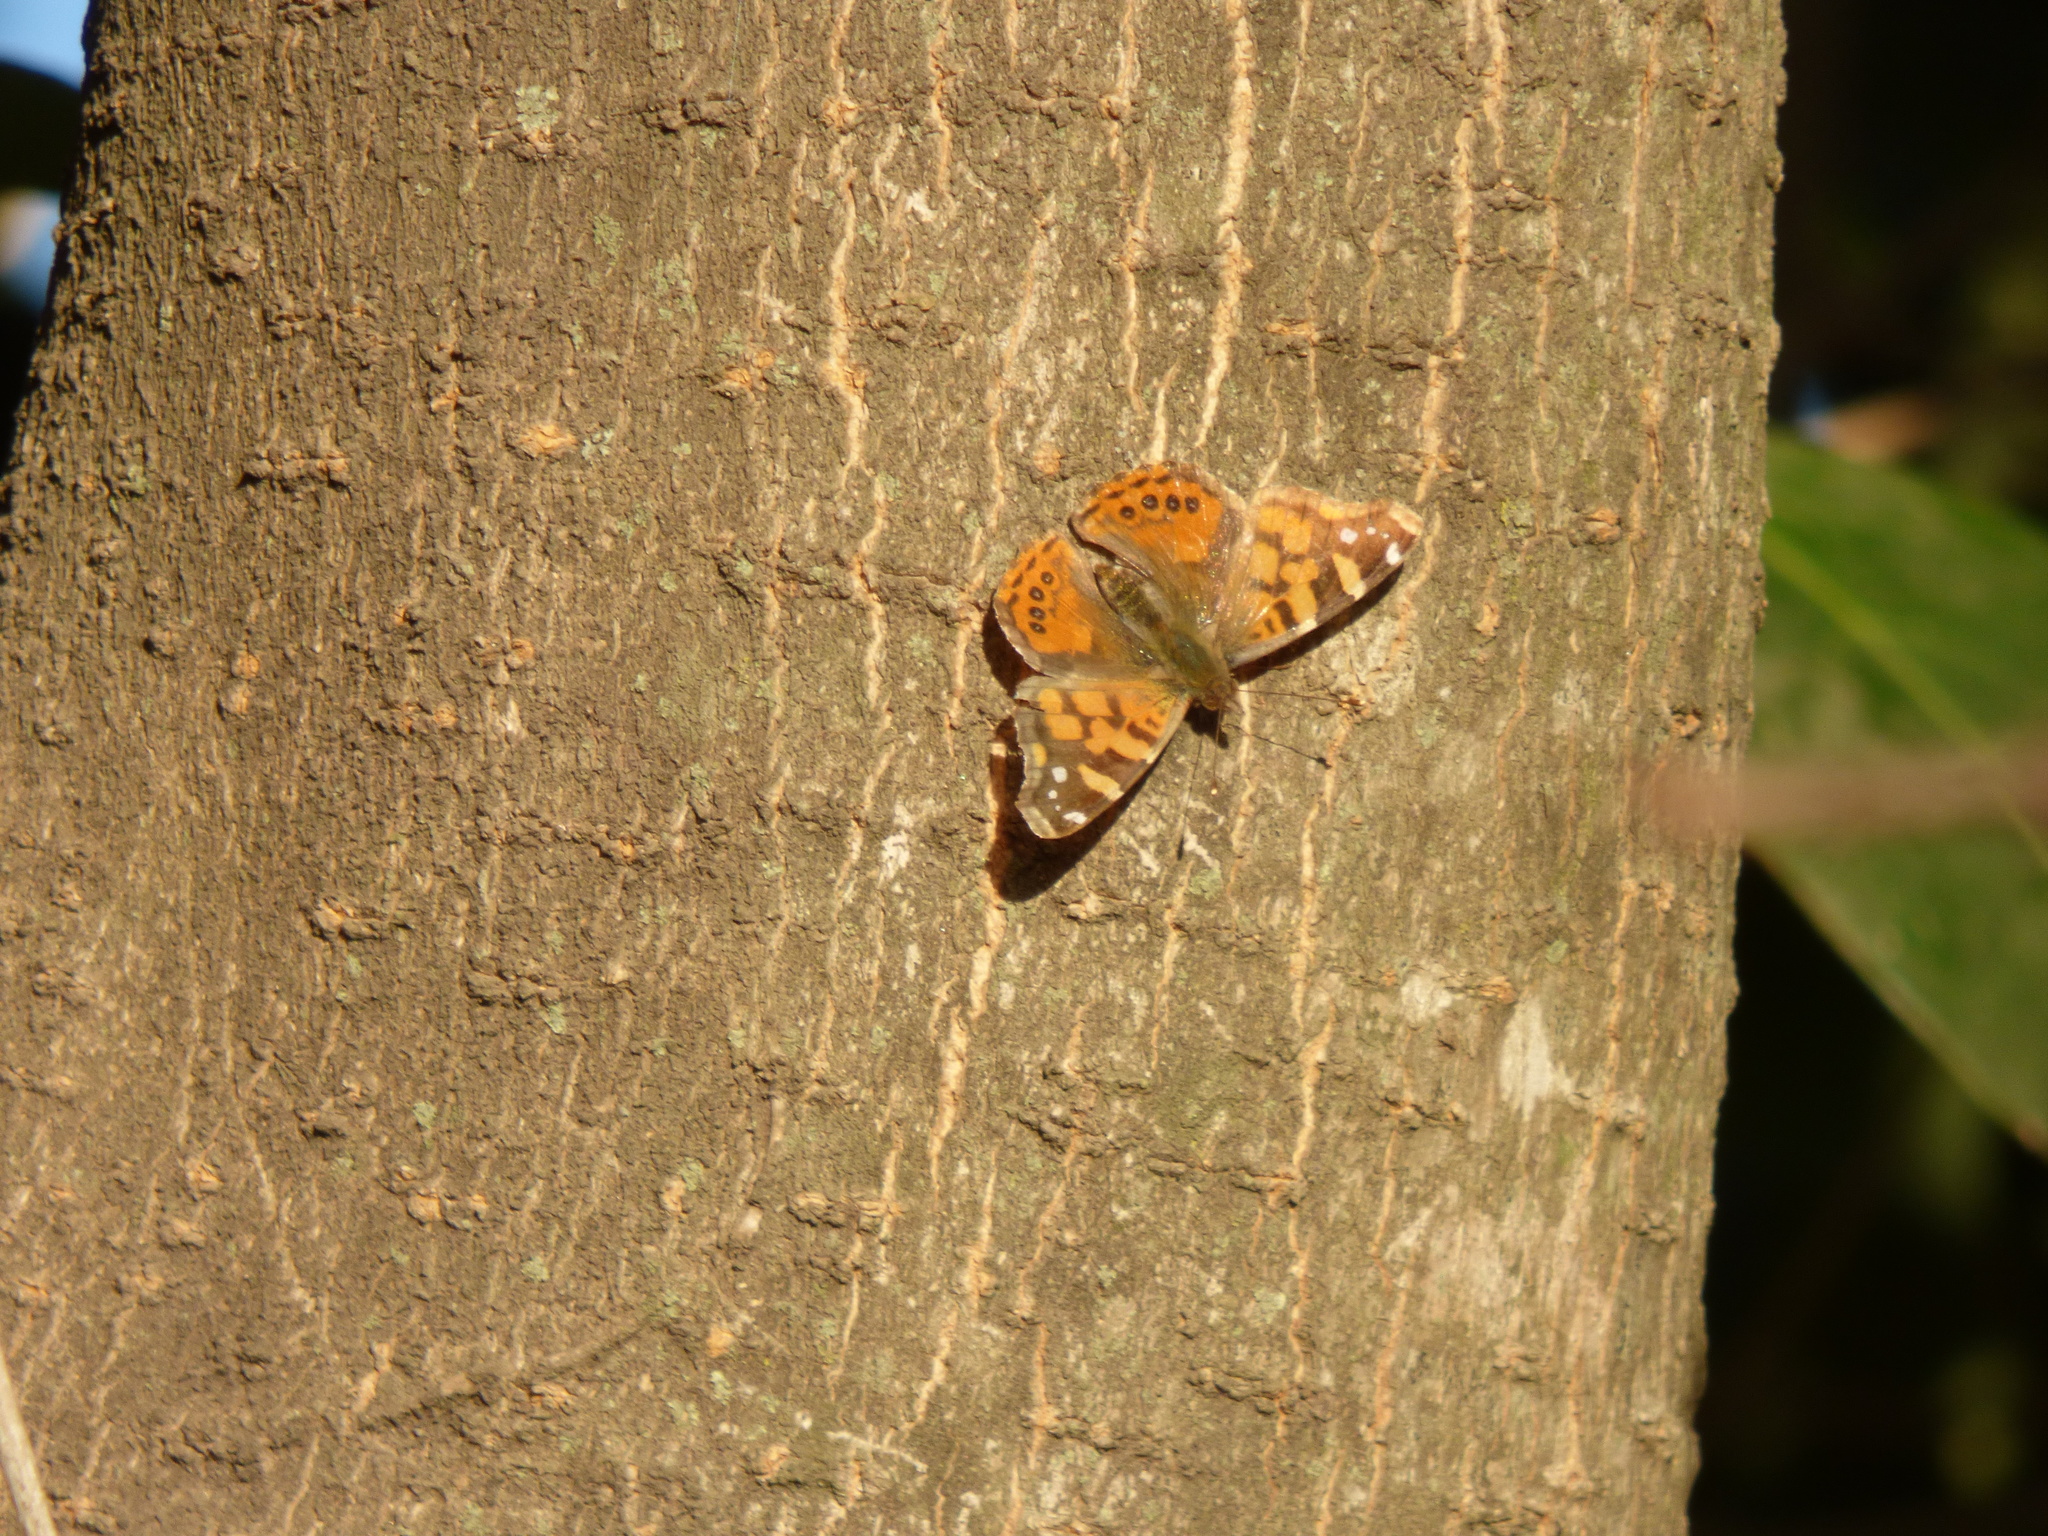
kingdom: Animalia
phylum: Arthropoda
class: Insecta
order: Lepidoptera
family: Nymphalidae
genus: Vanessa
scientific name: Vanessa carye
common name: Subtropical lady
